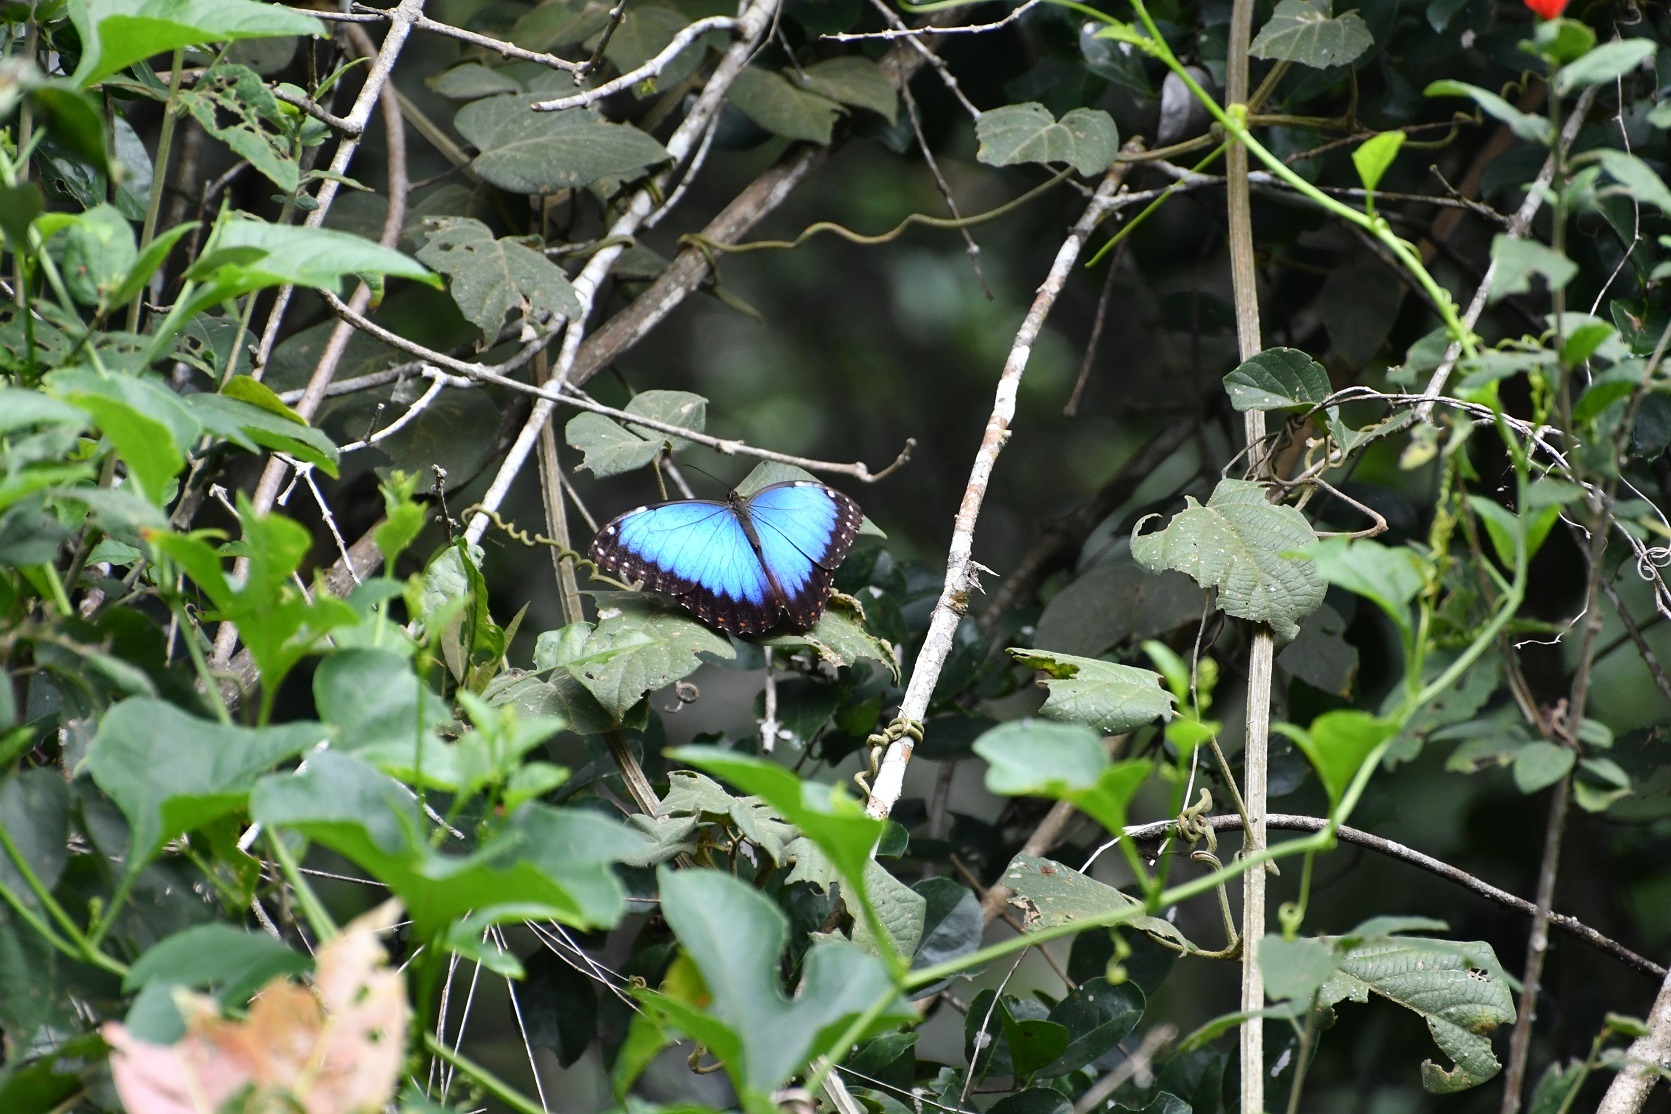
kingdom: Animalia
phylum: Arthropoda
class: Insecta
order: Lepidoptera
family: Nymphalidae
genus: Morpho
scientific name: Morpho helenor
